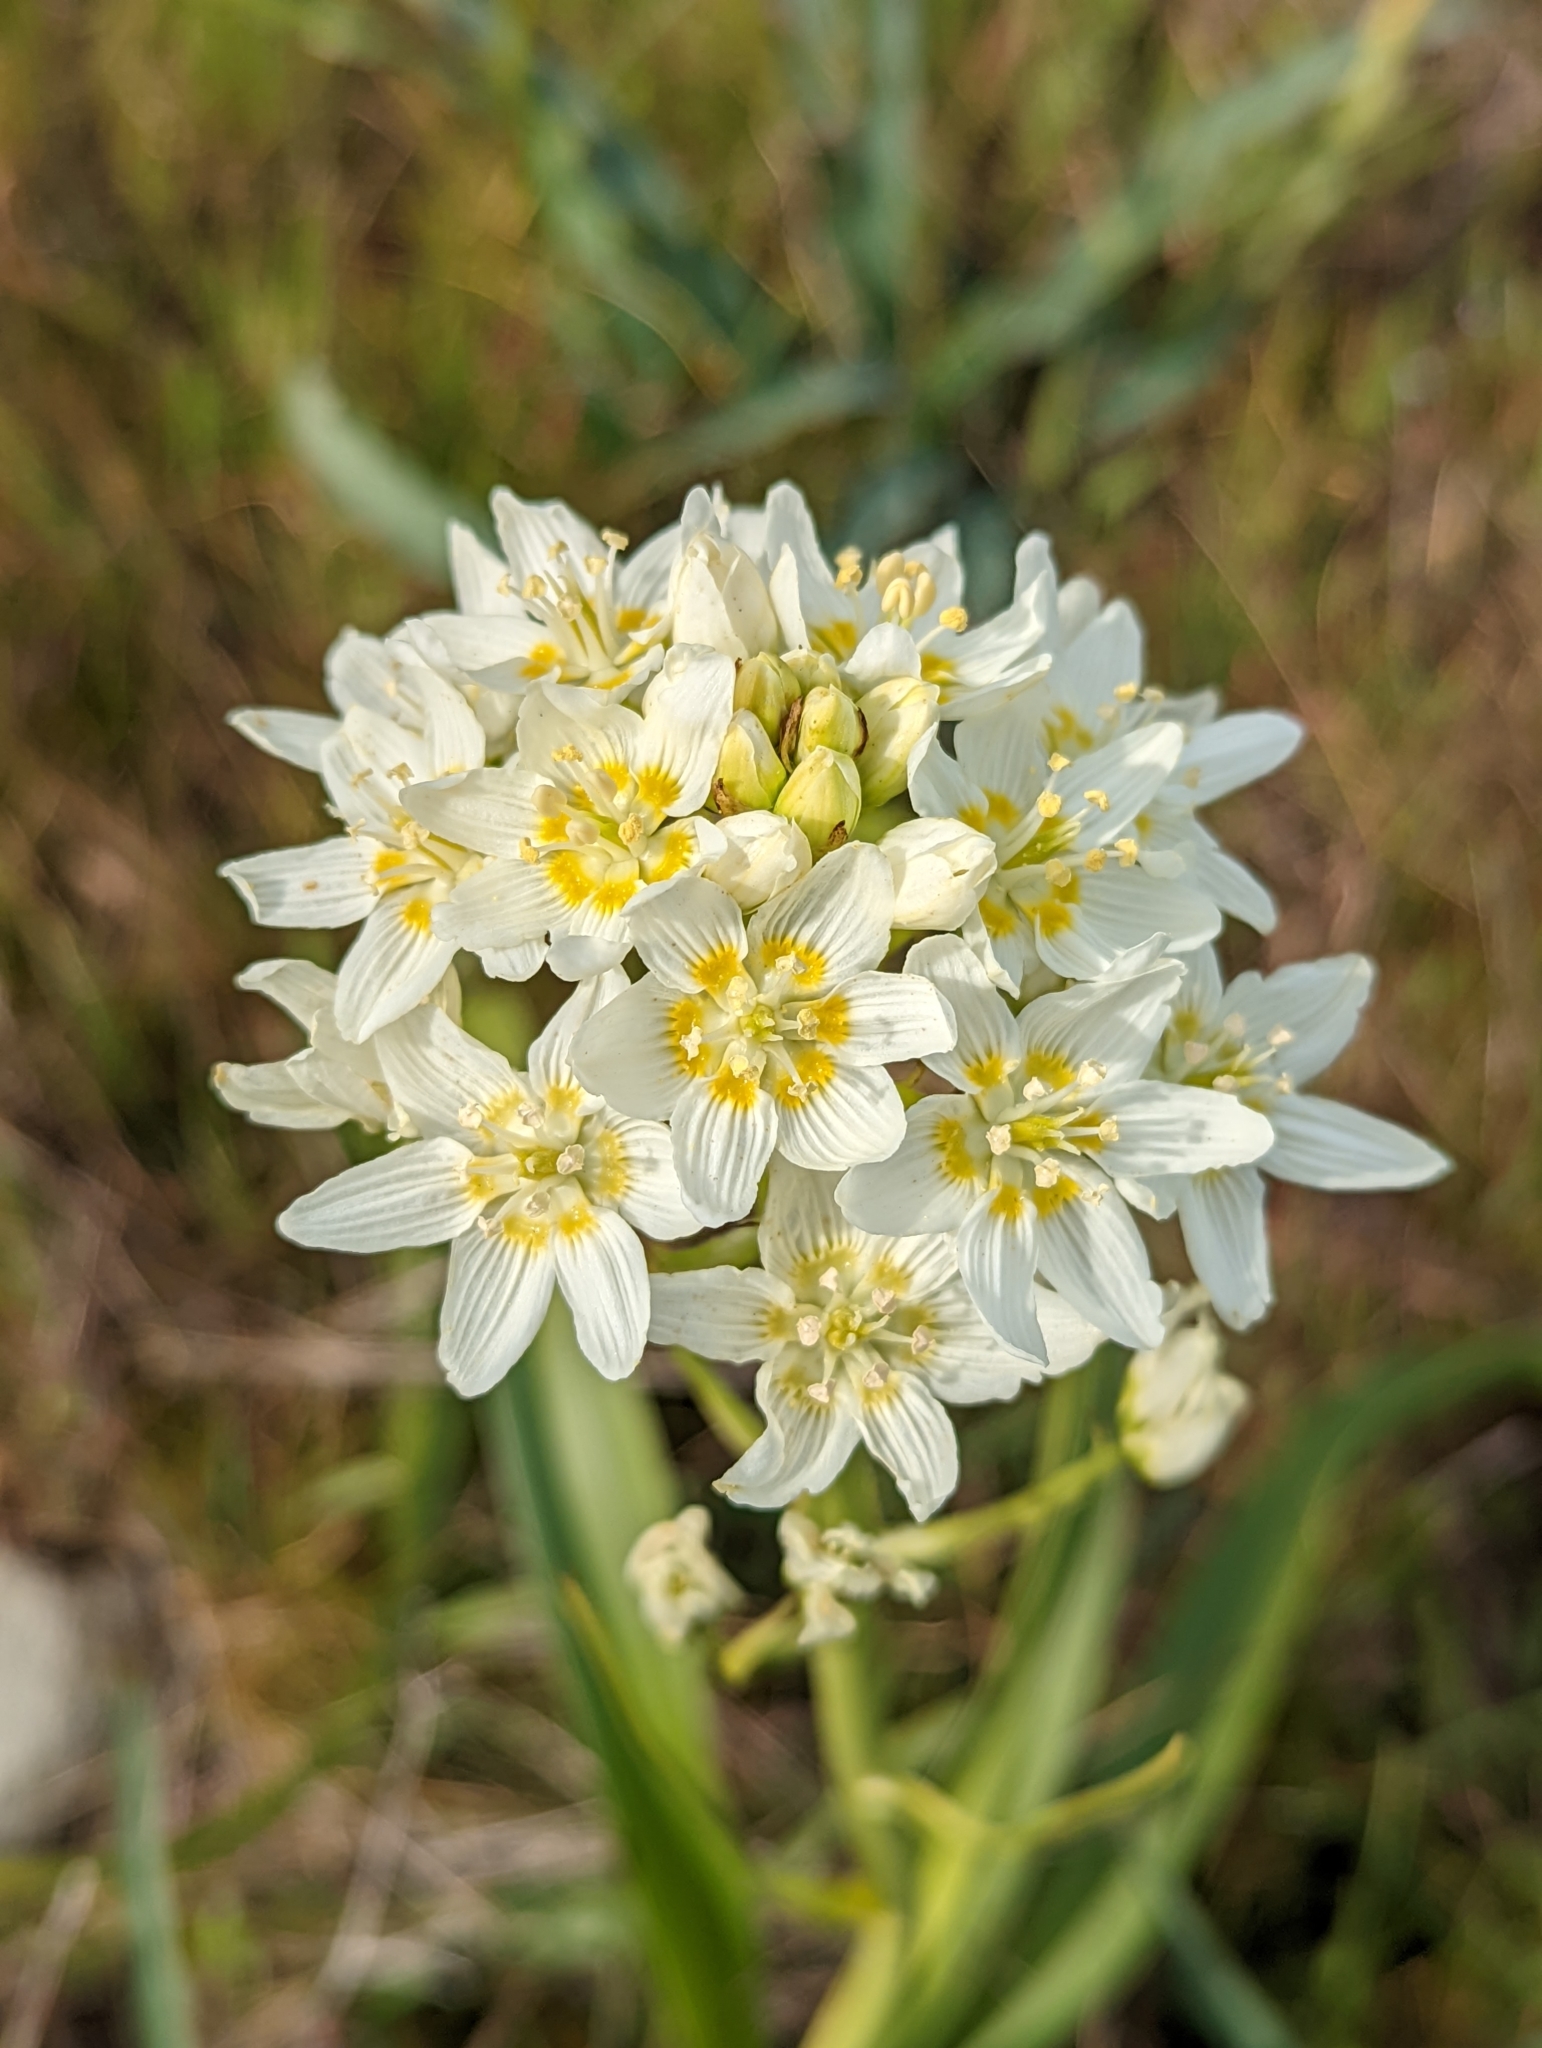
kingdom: Plantae
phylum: Tracheophyta
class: Liliopsida
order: Liliales
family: Melanthiaceae
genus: Toxicoscordion
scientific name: Toxicoscordion fremontii
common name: Fremont's death camas
